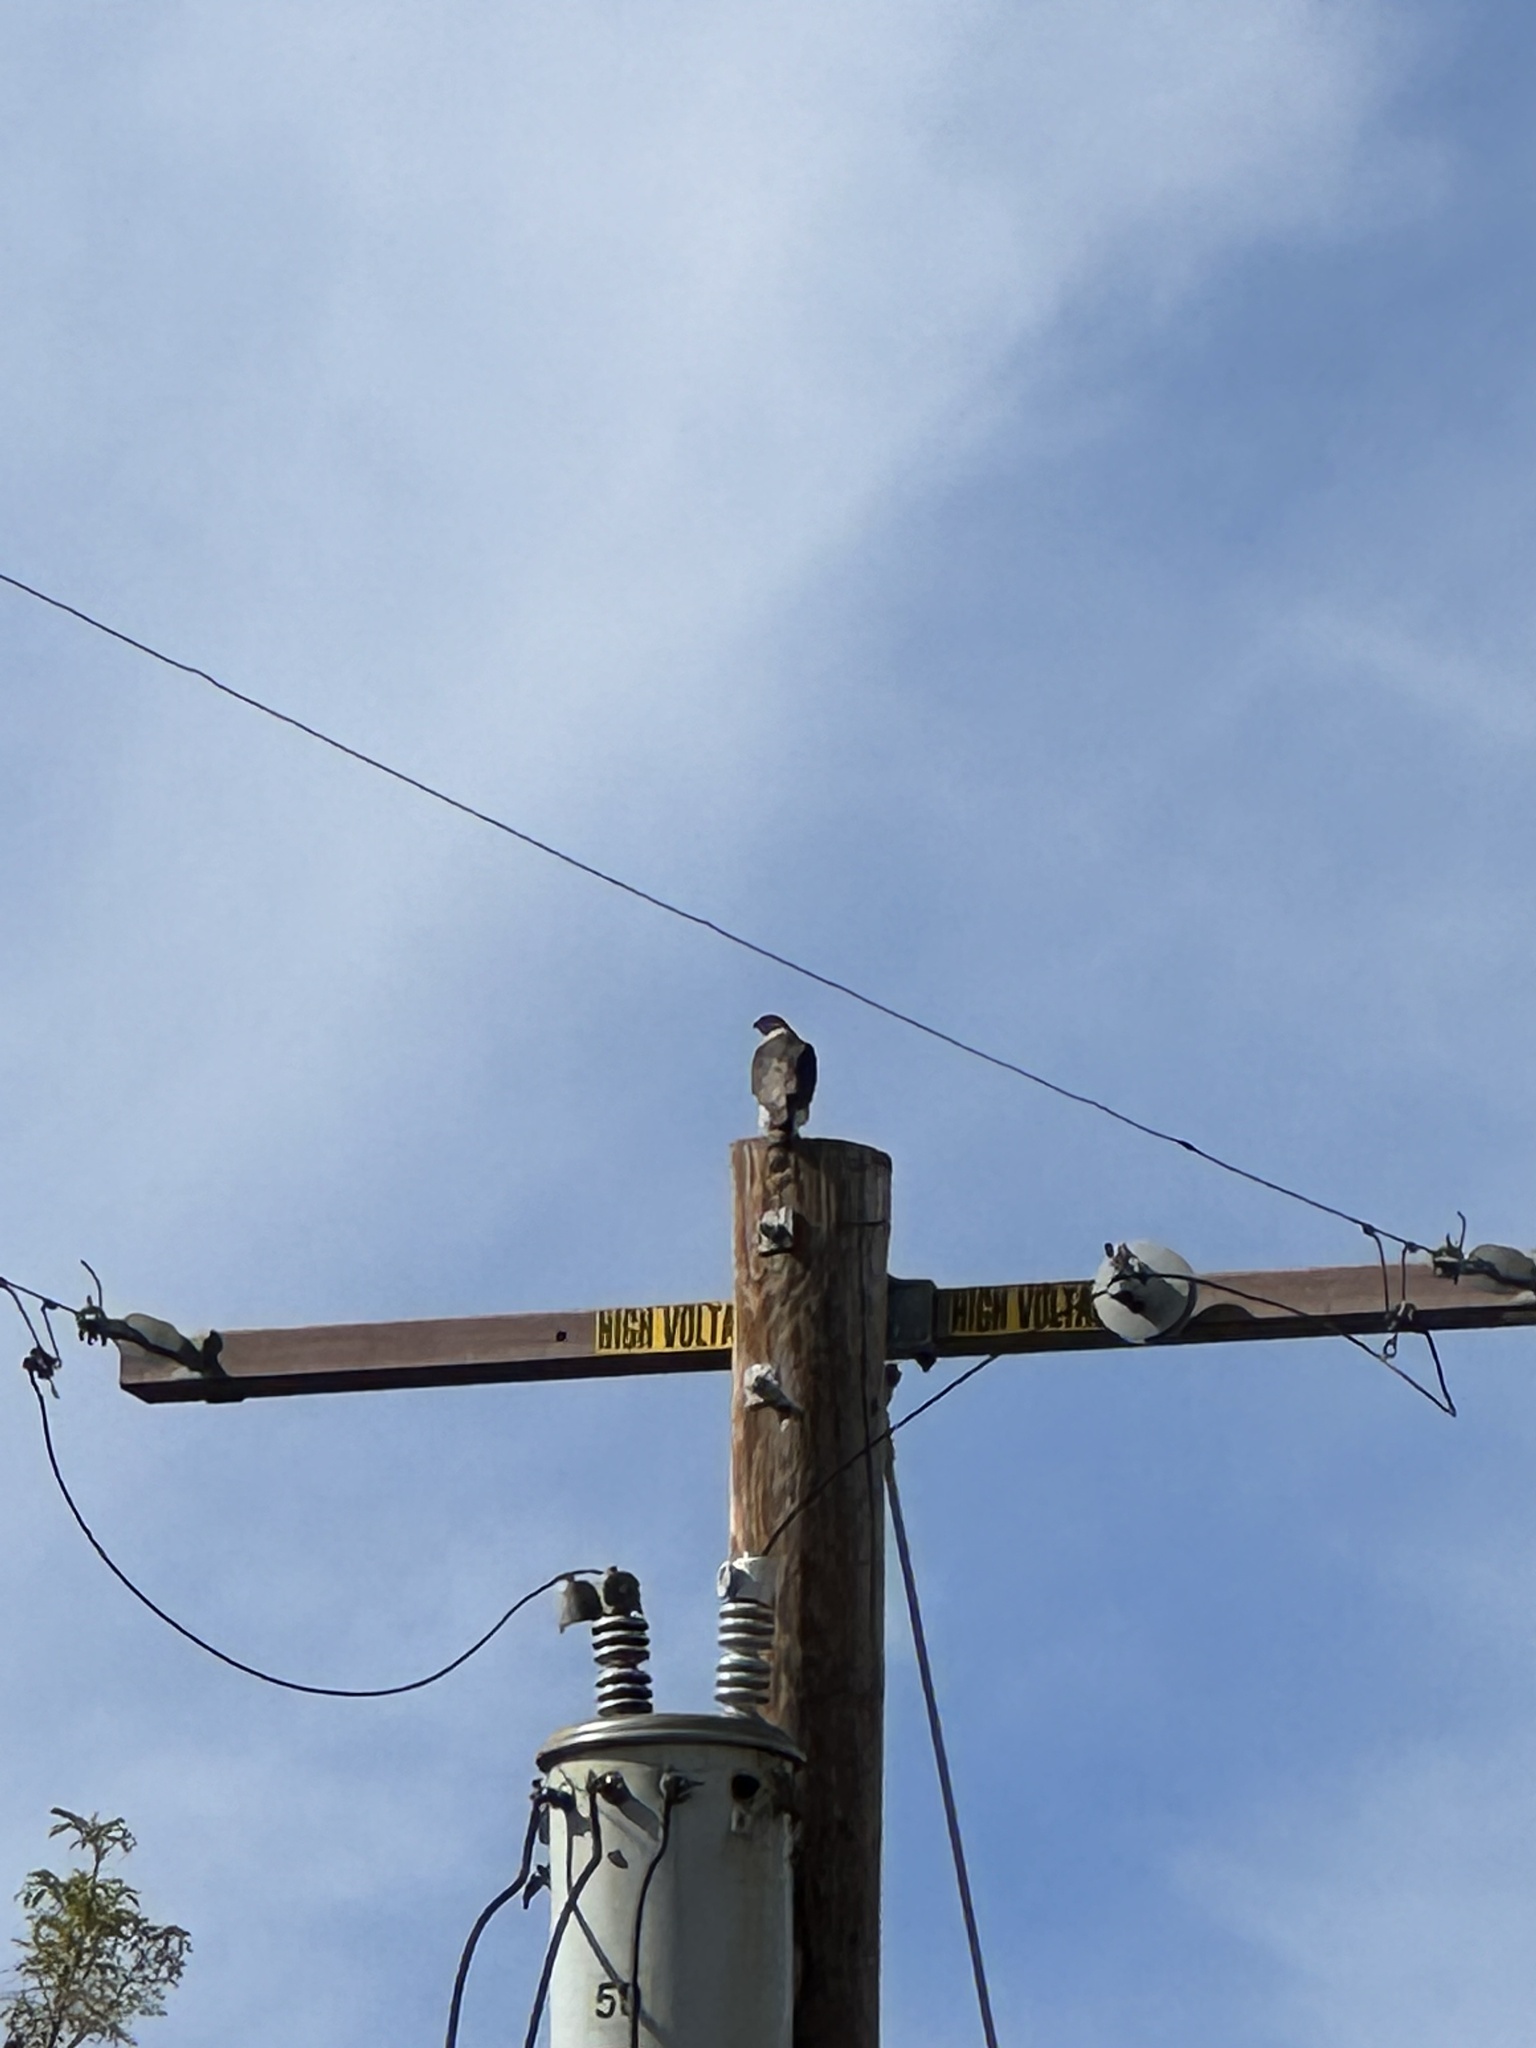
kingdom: Animalia
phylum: Chordata
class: Aves
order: Accipitriformes
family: Accipitridae
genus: Accipiter
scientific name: Accipiter cooperii
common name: Cooper's hawk
